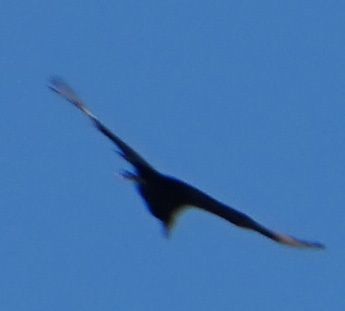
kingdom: Animalia
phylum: Chordata
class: Aves
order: Accipitriformes
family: Cathartidae
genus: Coragyps
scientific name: Coragyps atratus
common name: Black vulture
